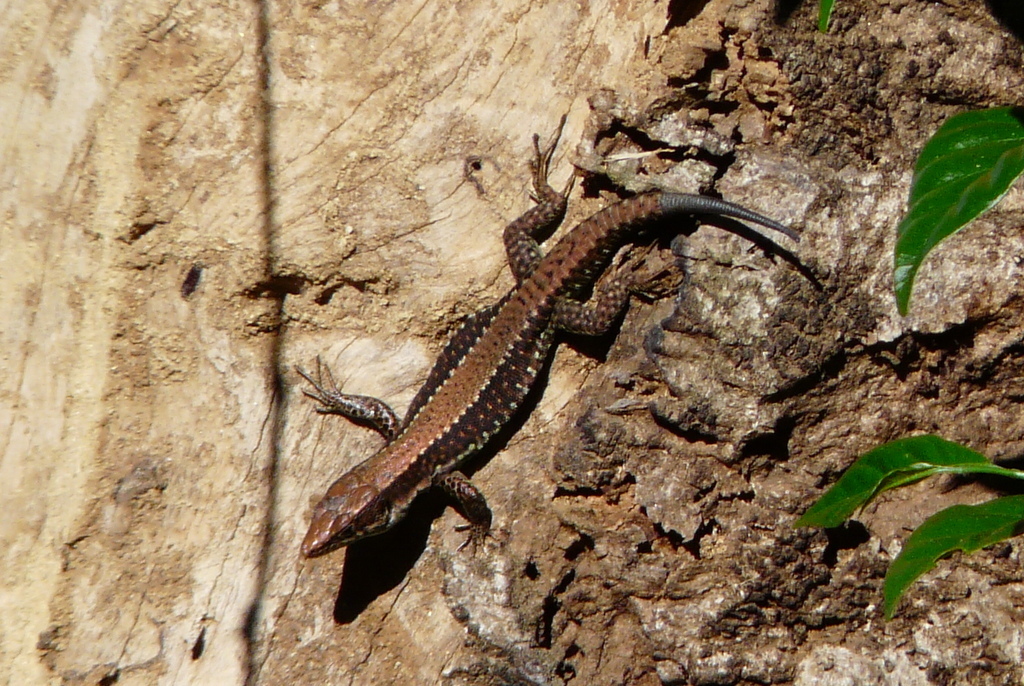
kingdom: Animalia
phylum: Chordata
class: Squamata
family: Lacertidae
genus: Adolfus
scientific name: Adolfus kibonotensis
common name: Jackson’s forest lizard
